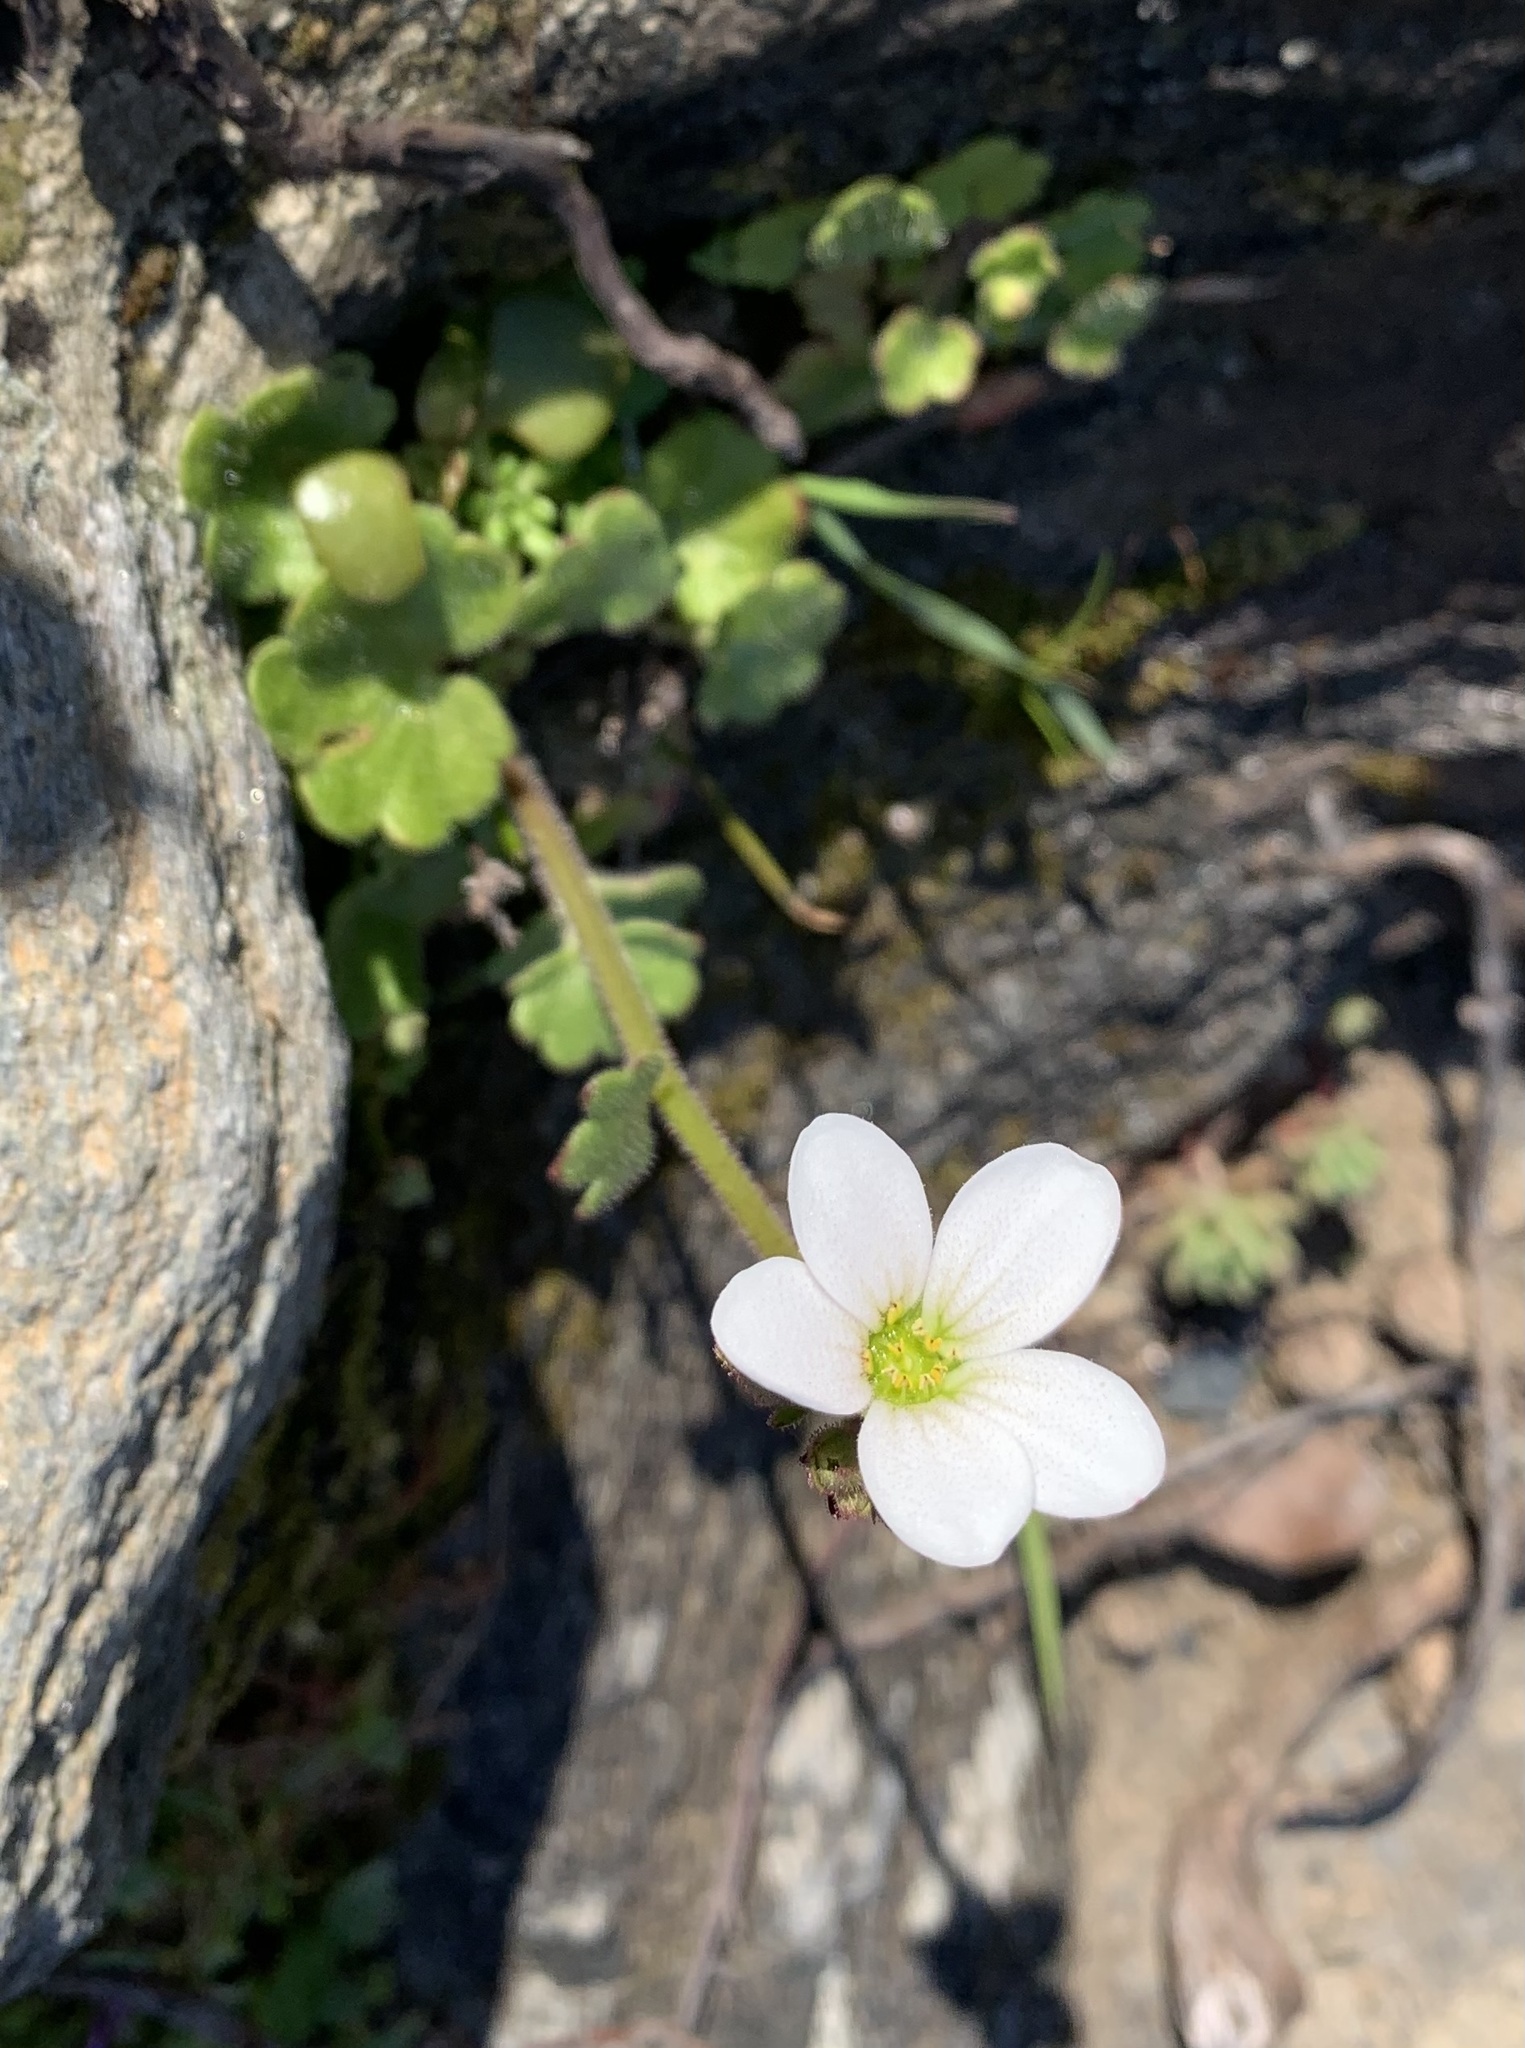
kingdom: Plantae
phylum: Tracheophyta
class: Magnoliopsida
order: Saxifragales
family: Saxifragaceae
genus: Saxifraga
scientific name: Saxifraga carpetana
